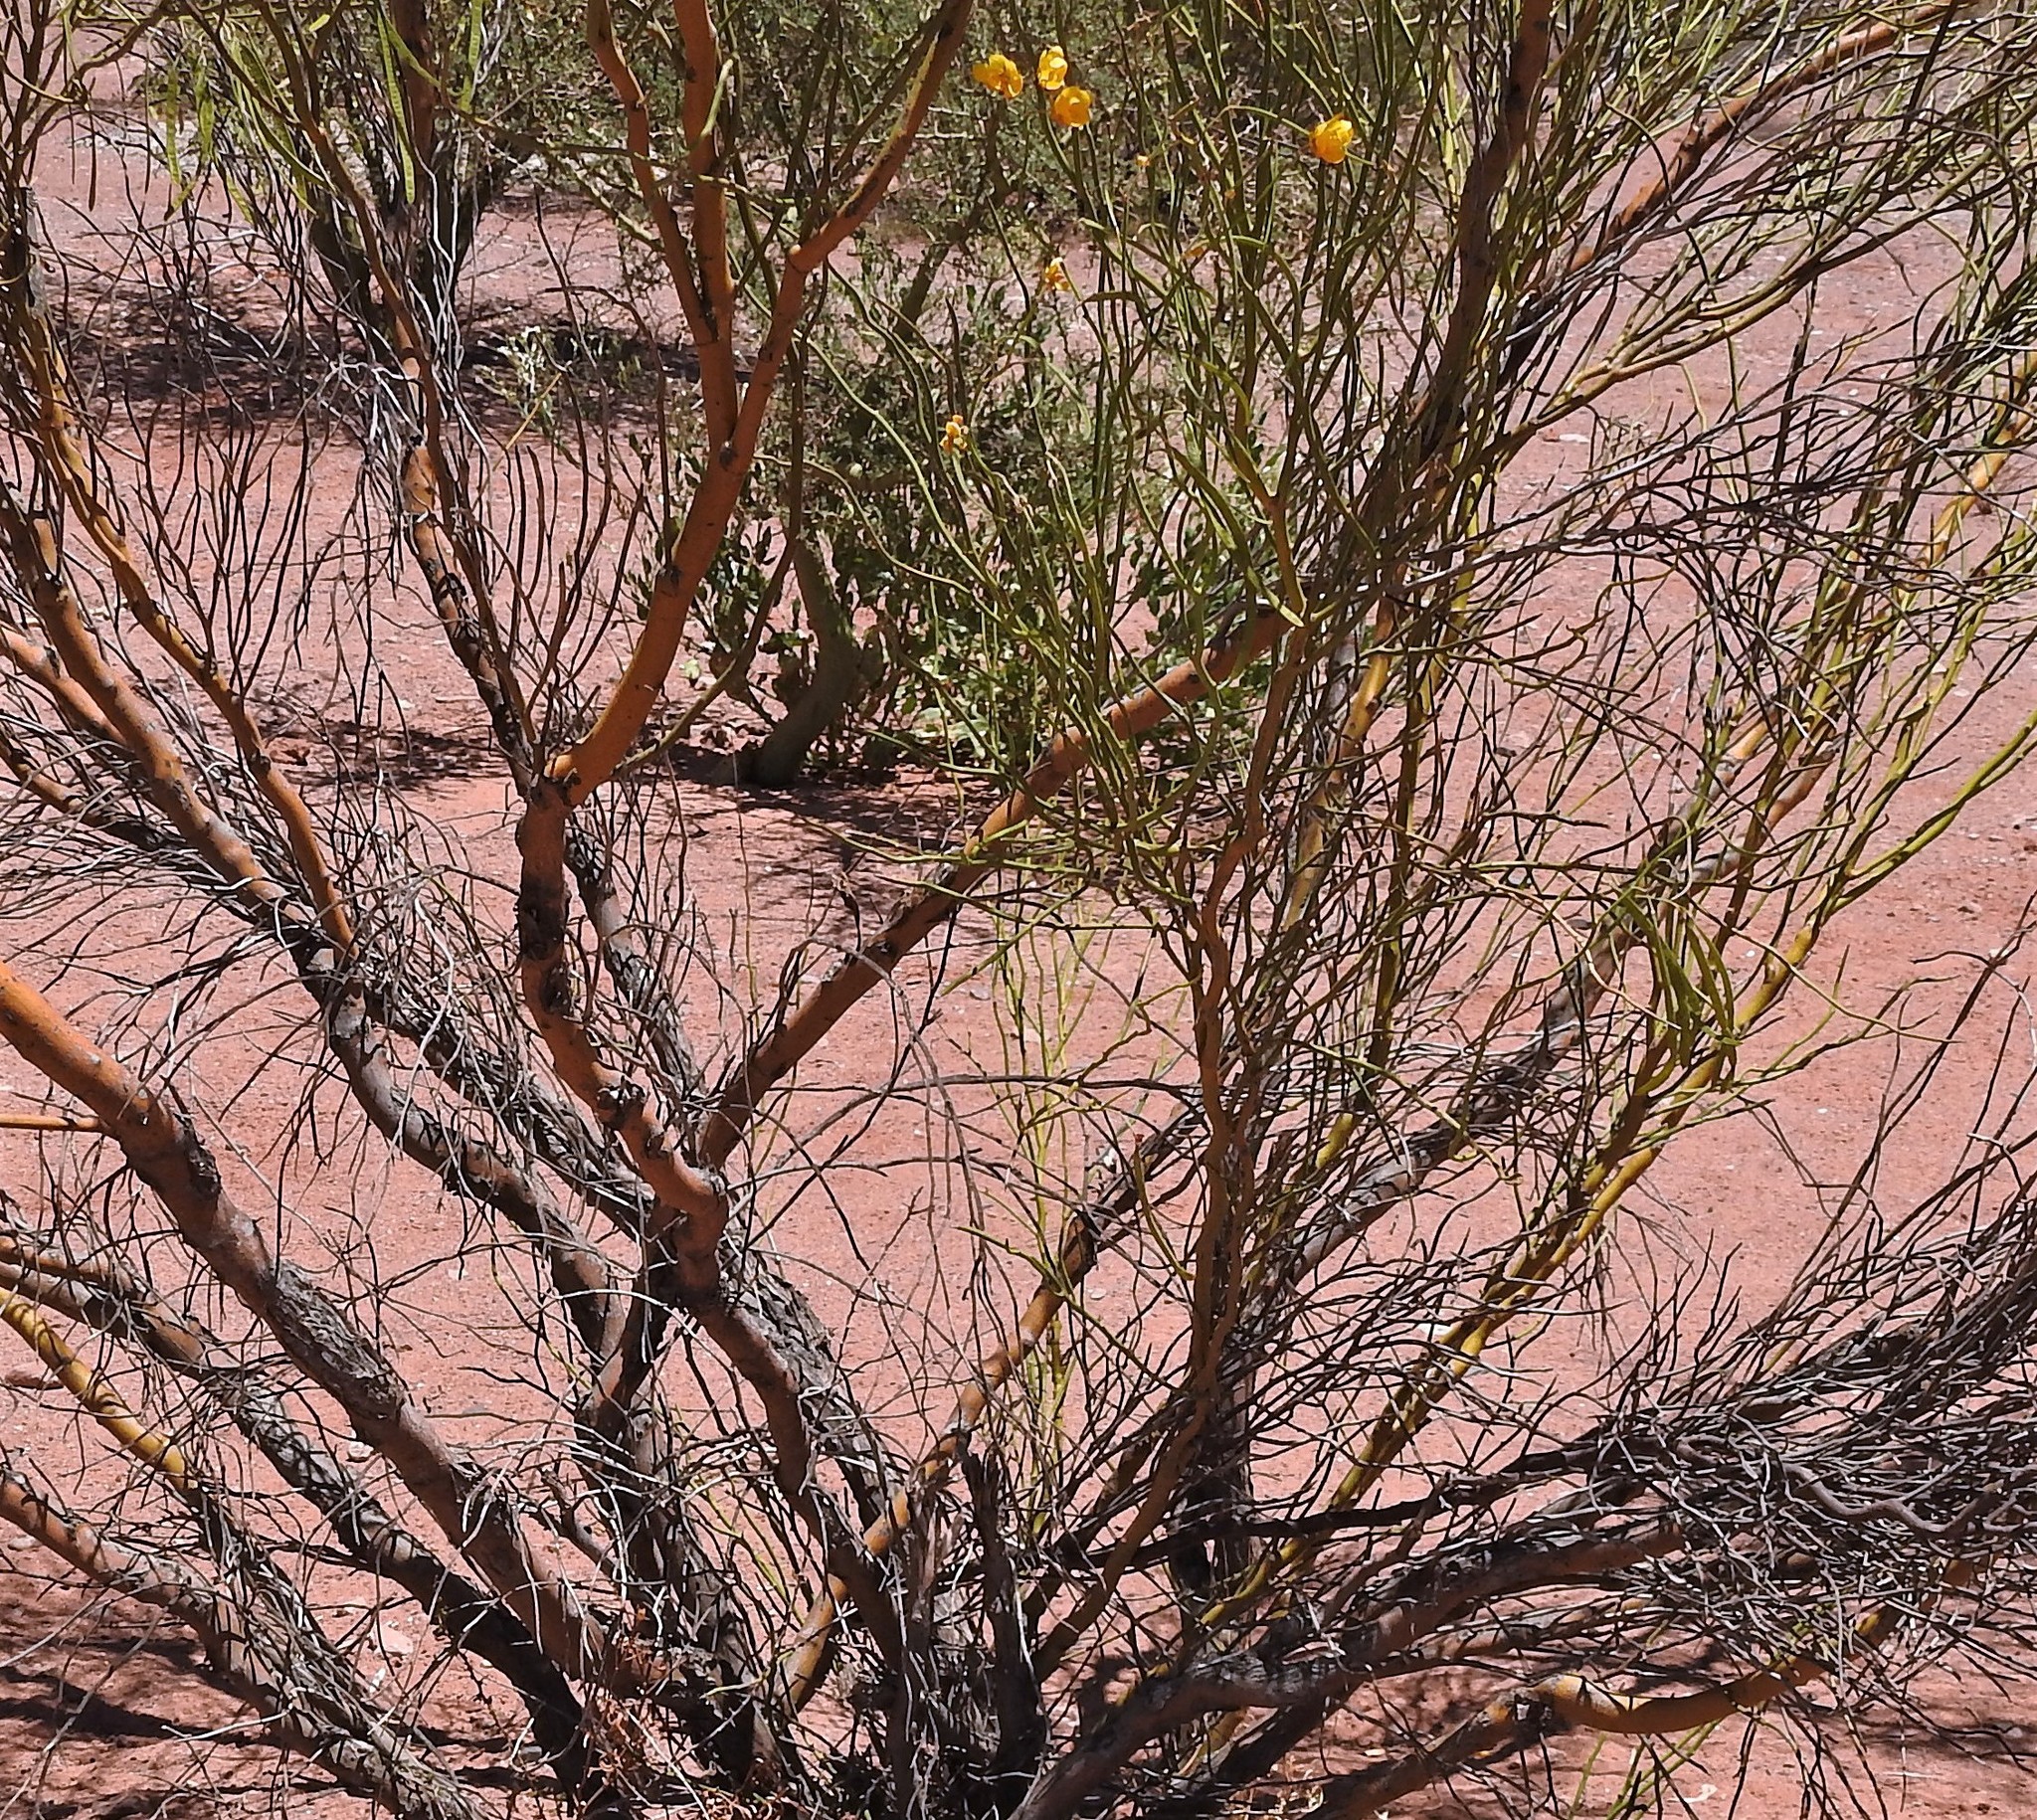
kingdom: Plantae
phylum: Tracheophyta
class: Magnoliopsida
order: Fabales
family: Fabaceae
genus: Senna
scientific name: Senna aphylla
